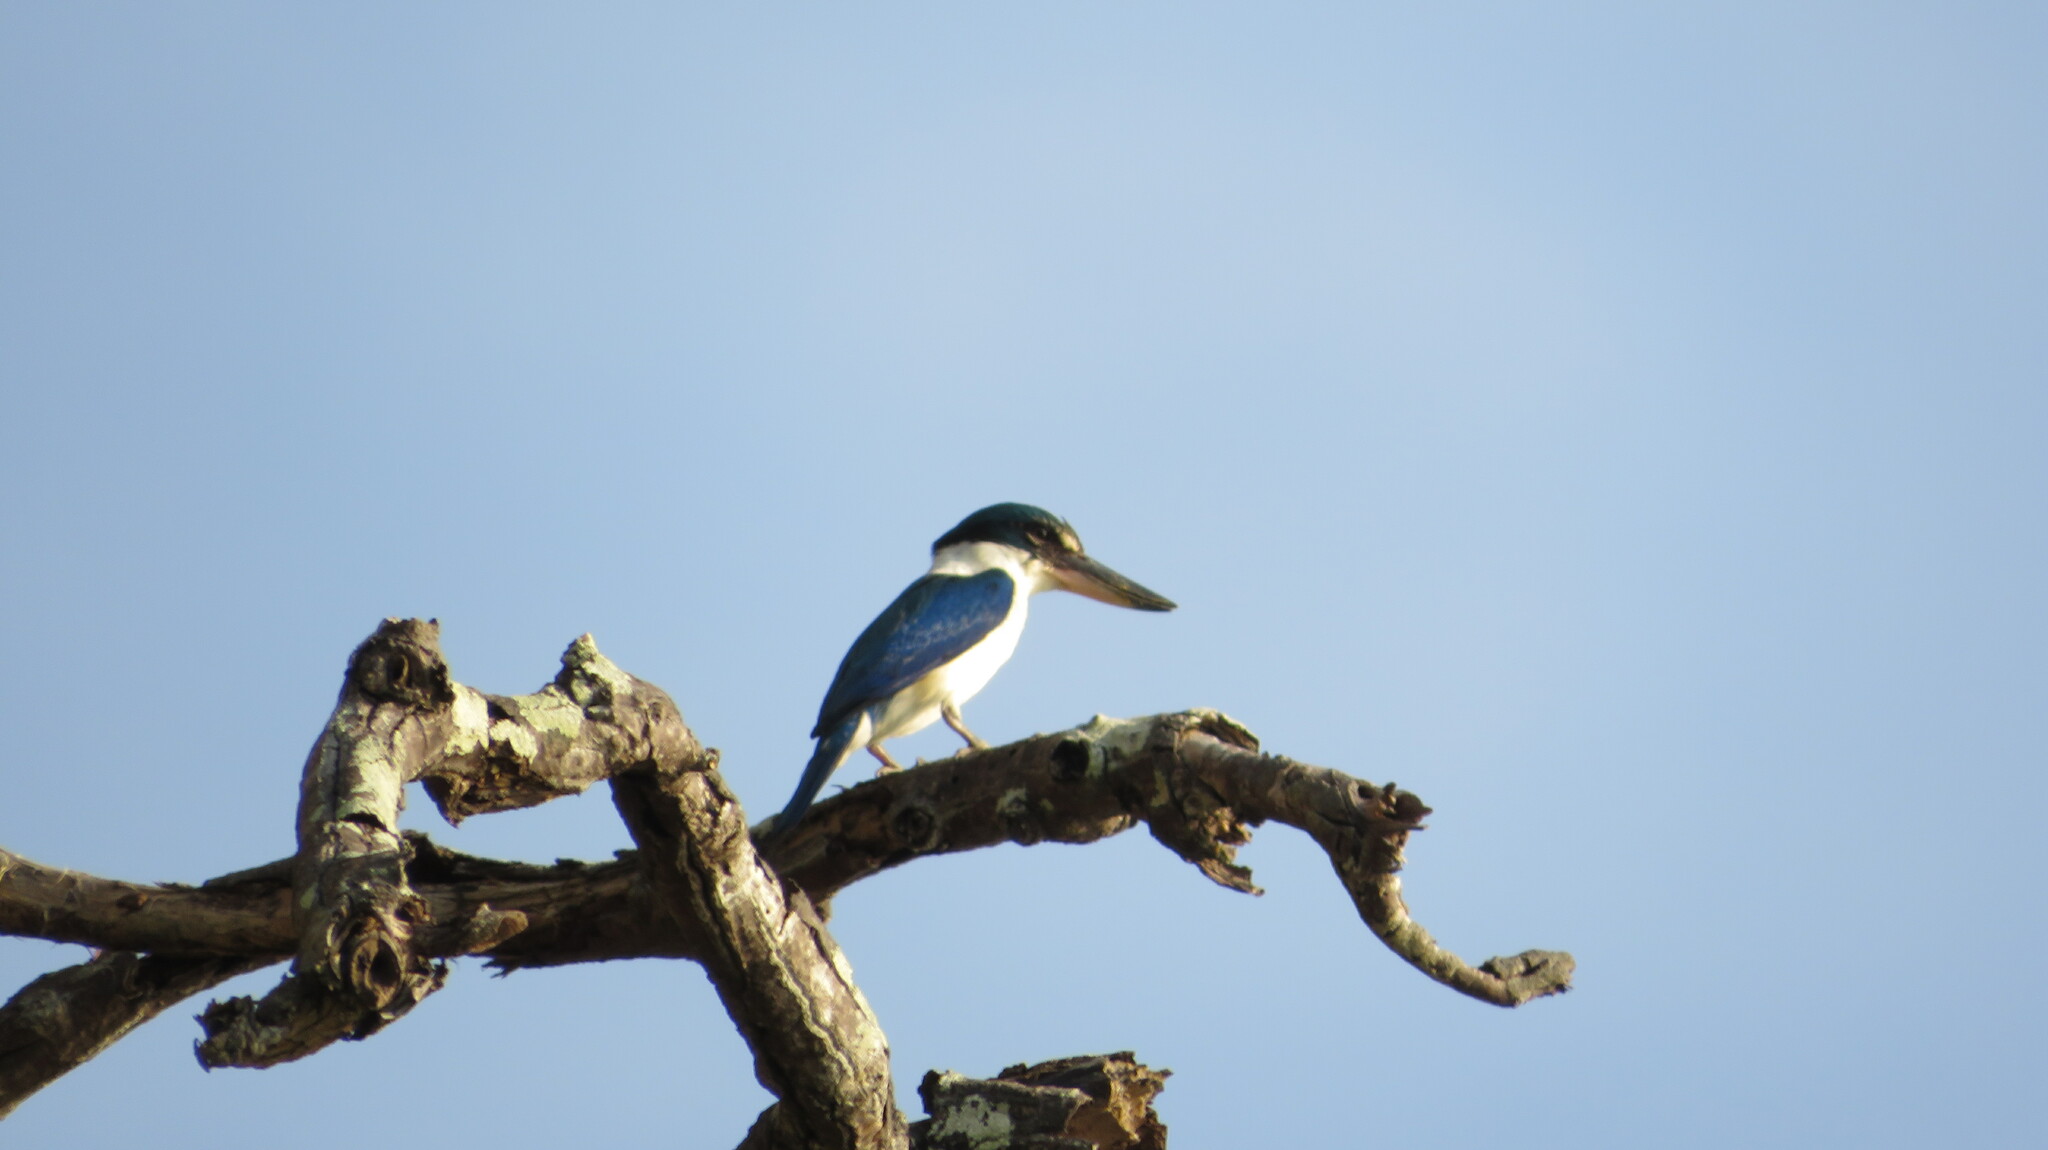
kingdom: Animalia
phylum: Chordata
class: Aves
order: Coraciiformes
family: Alcedinidae
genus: Todiramphus
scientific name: Todiramphus chloris
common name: Collared kingfisher
